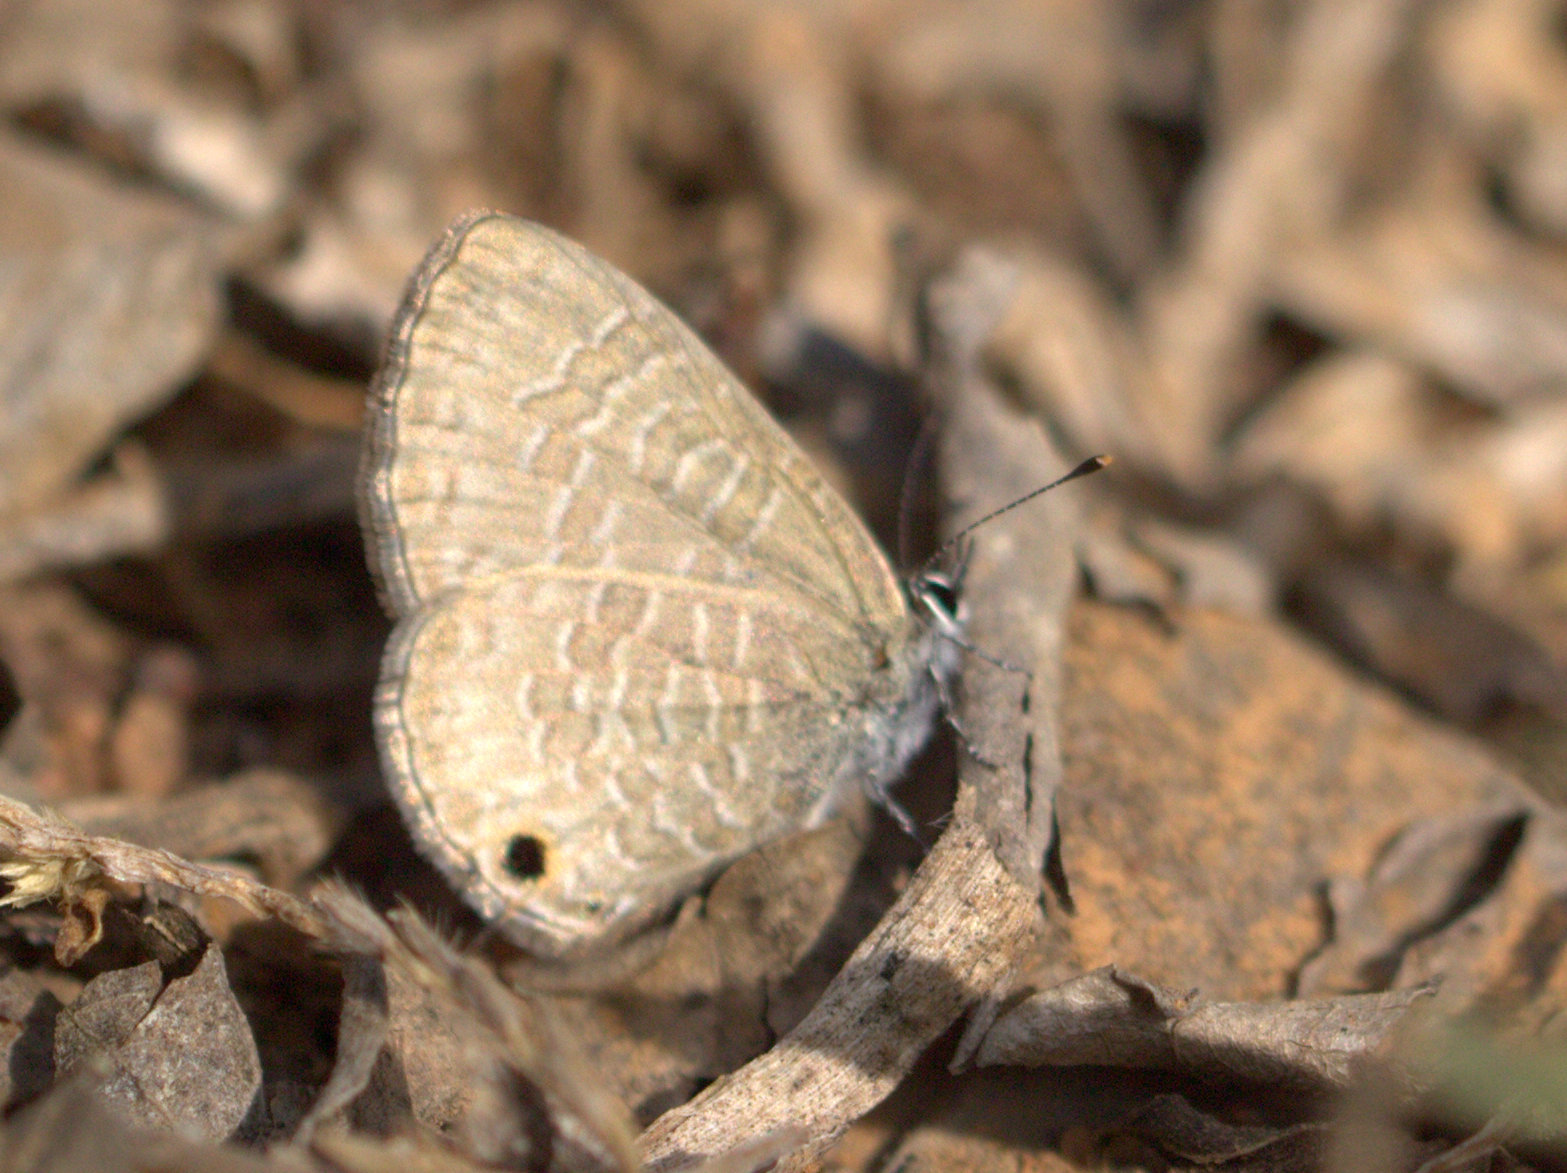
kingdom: Animalia
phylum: Arthropoda
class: Insecta
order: Lepidoptera
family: Lycaenidae
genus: Prosotas
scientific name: Prosotas dubiosa
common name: Tailless lineblue
